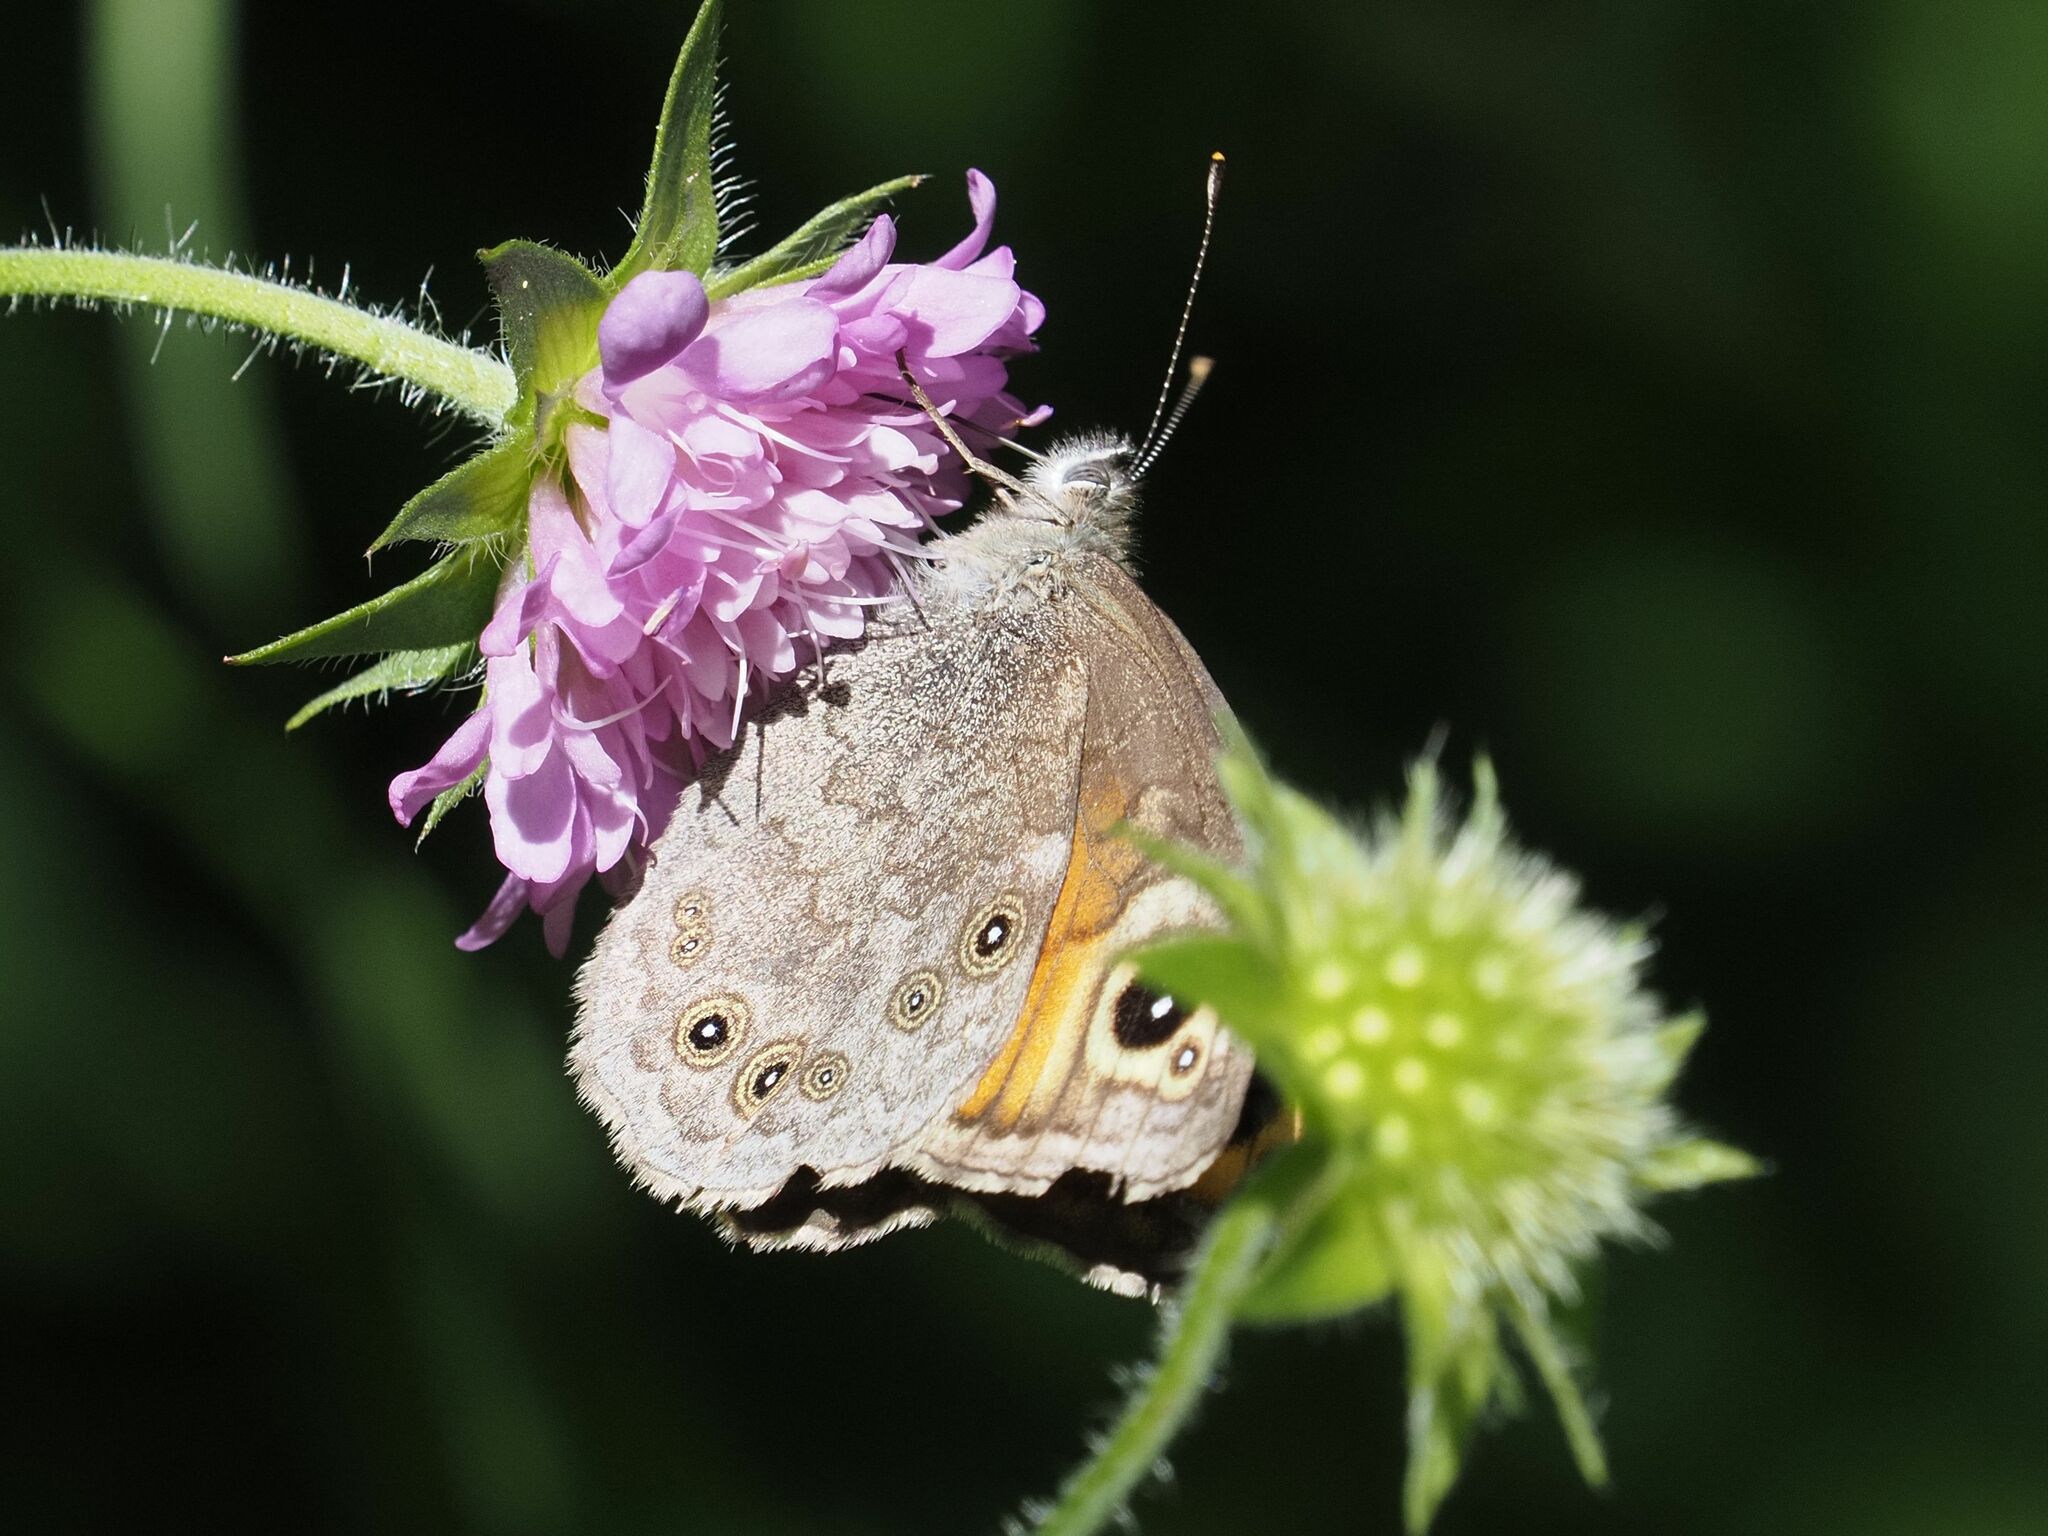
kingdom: Animalia
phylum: Arthropoda
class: Insecta
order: Lepidoptera
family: Nymphalidae
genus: Pararge
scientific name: Pararge Lasiommata maera
